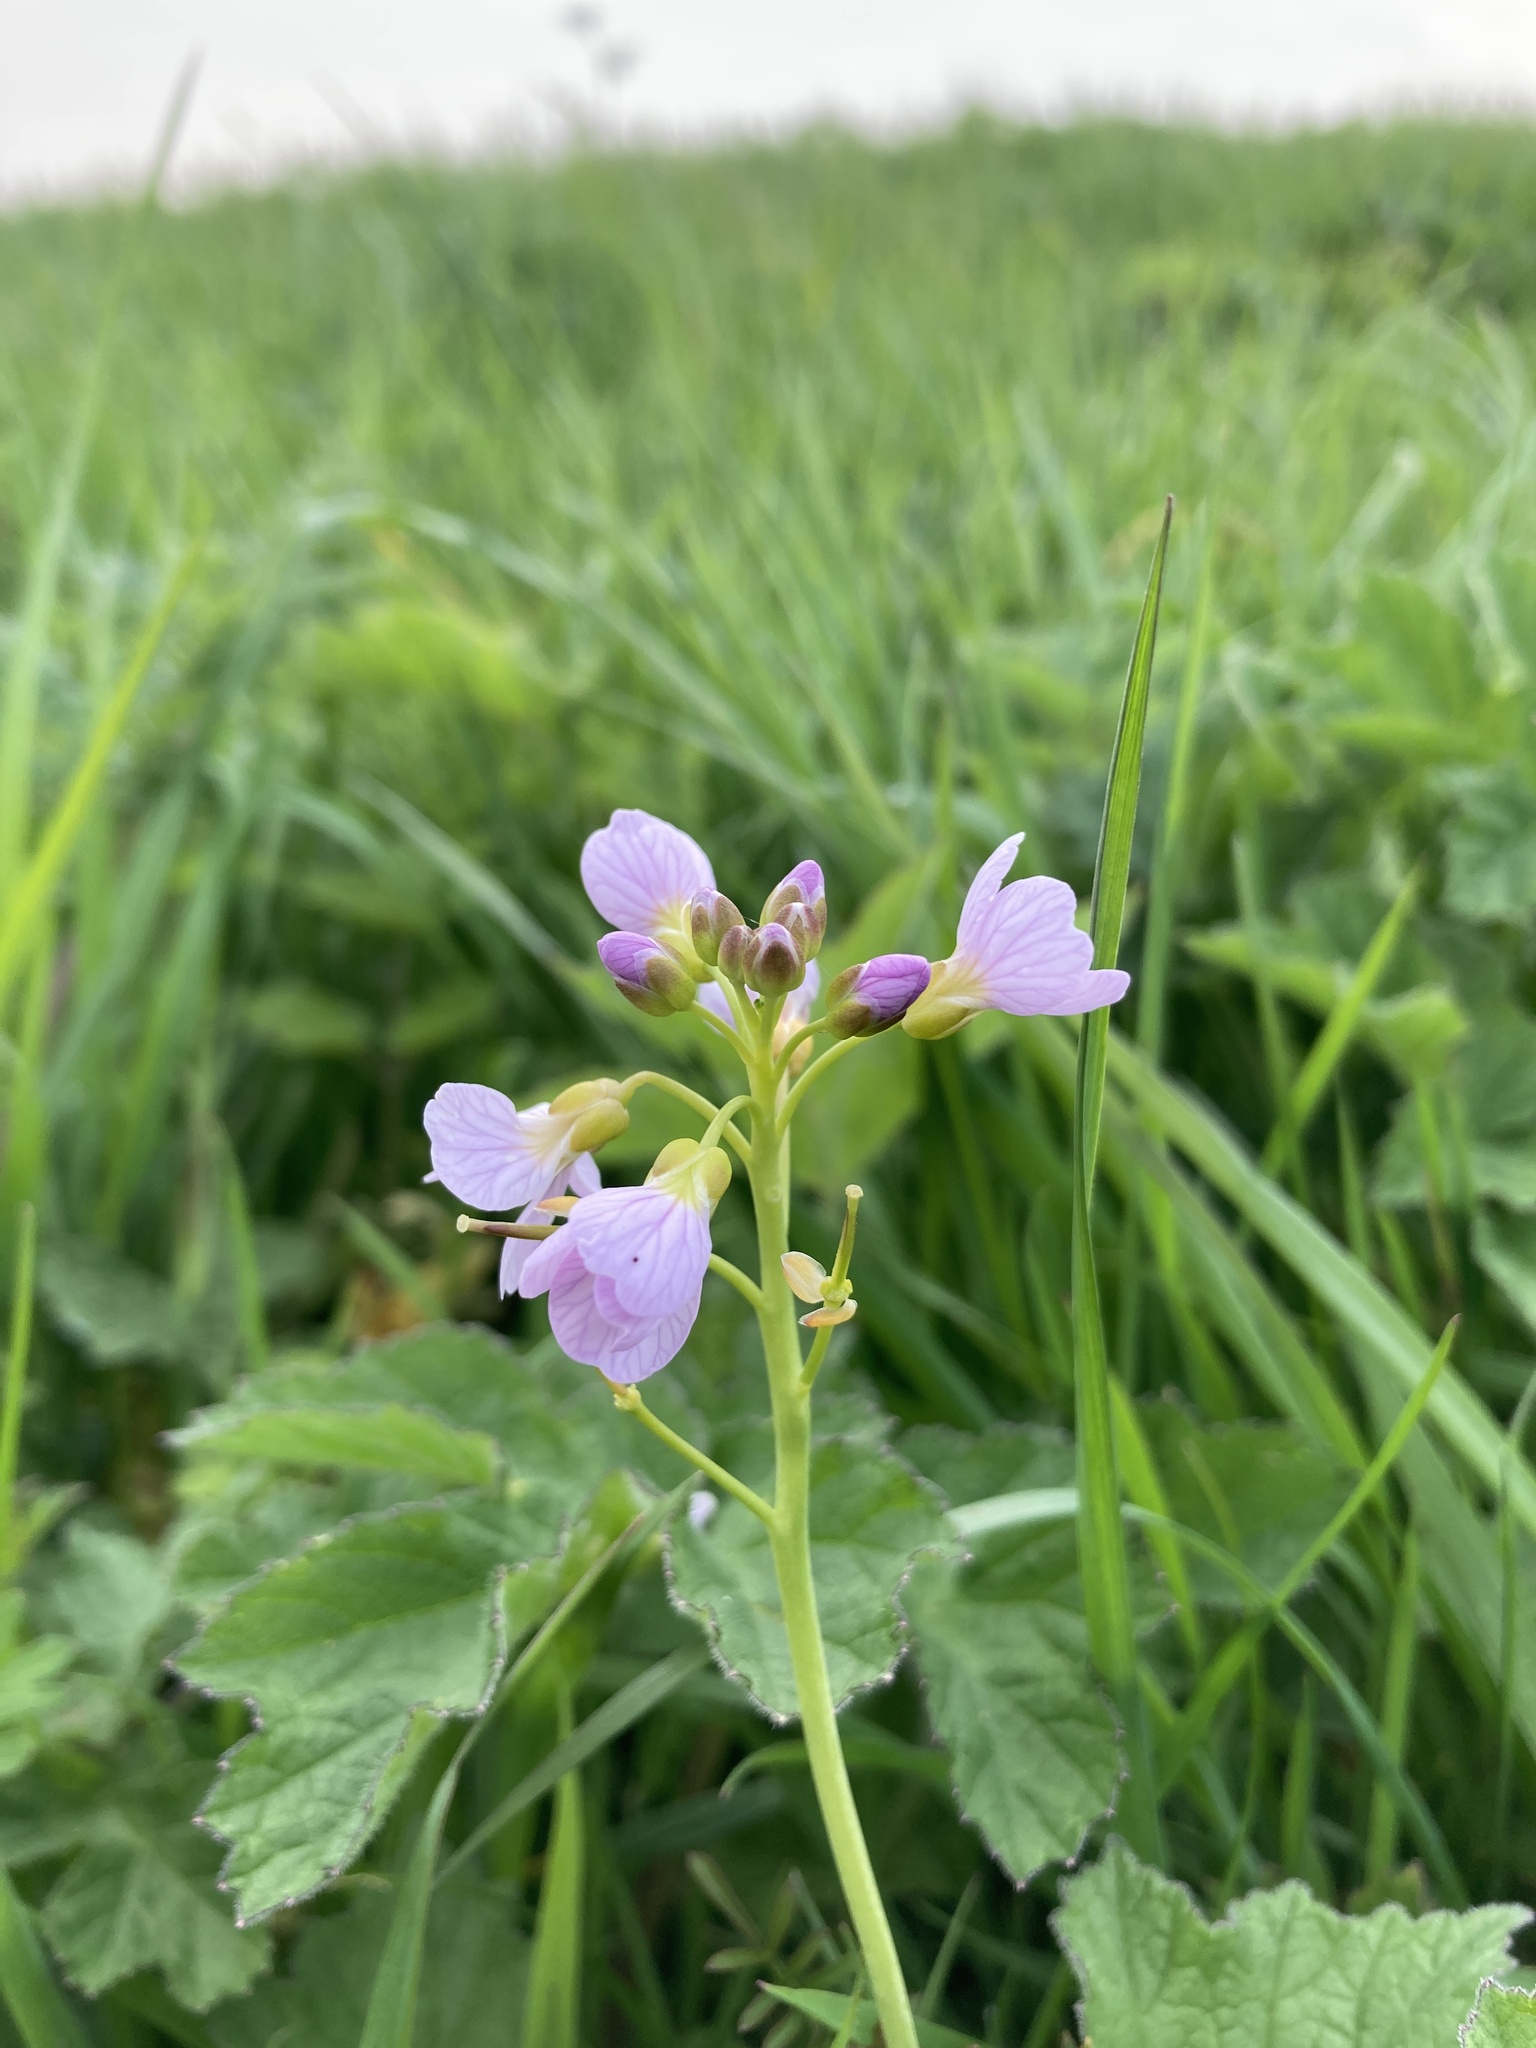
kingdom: Plantae
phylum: Tracheophyta
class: Magnoliopsida
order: Brassicales
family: Brassicaceae
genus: Cardamine
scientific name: Cardamine pratensis
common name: Cuckoo flower
